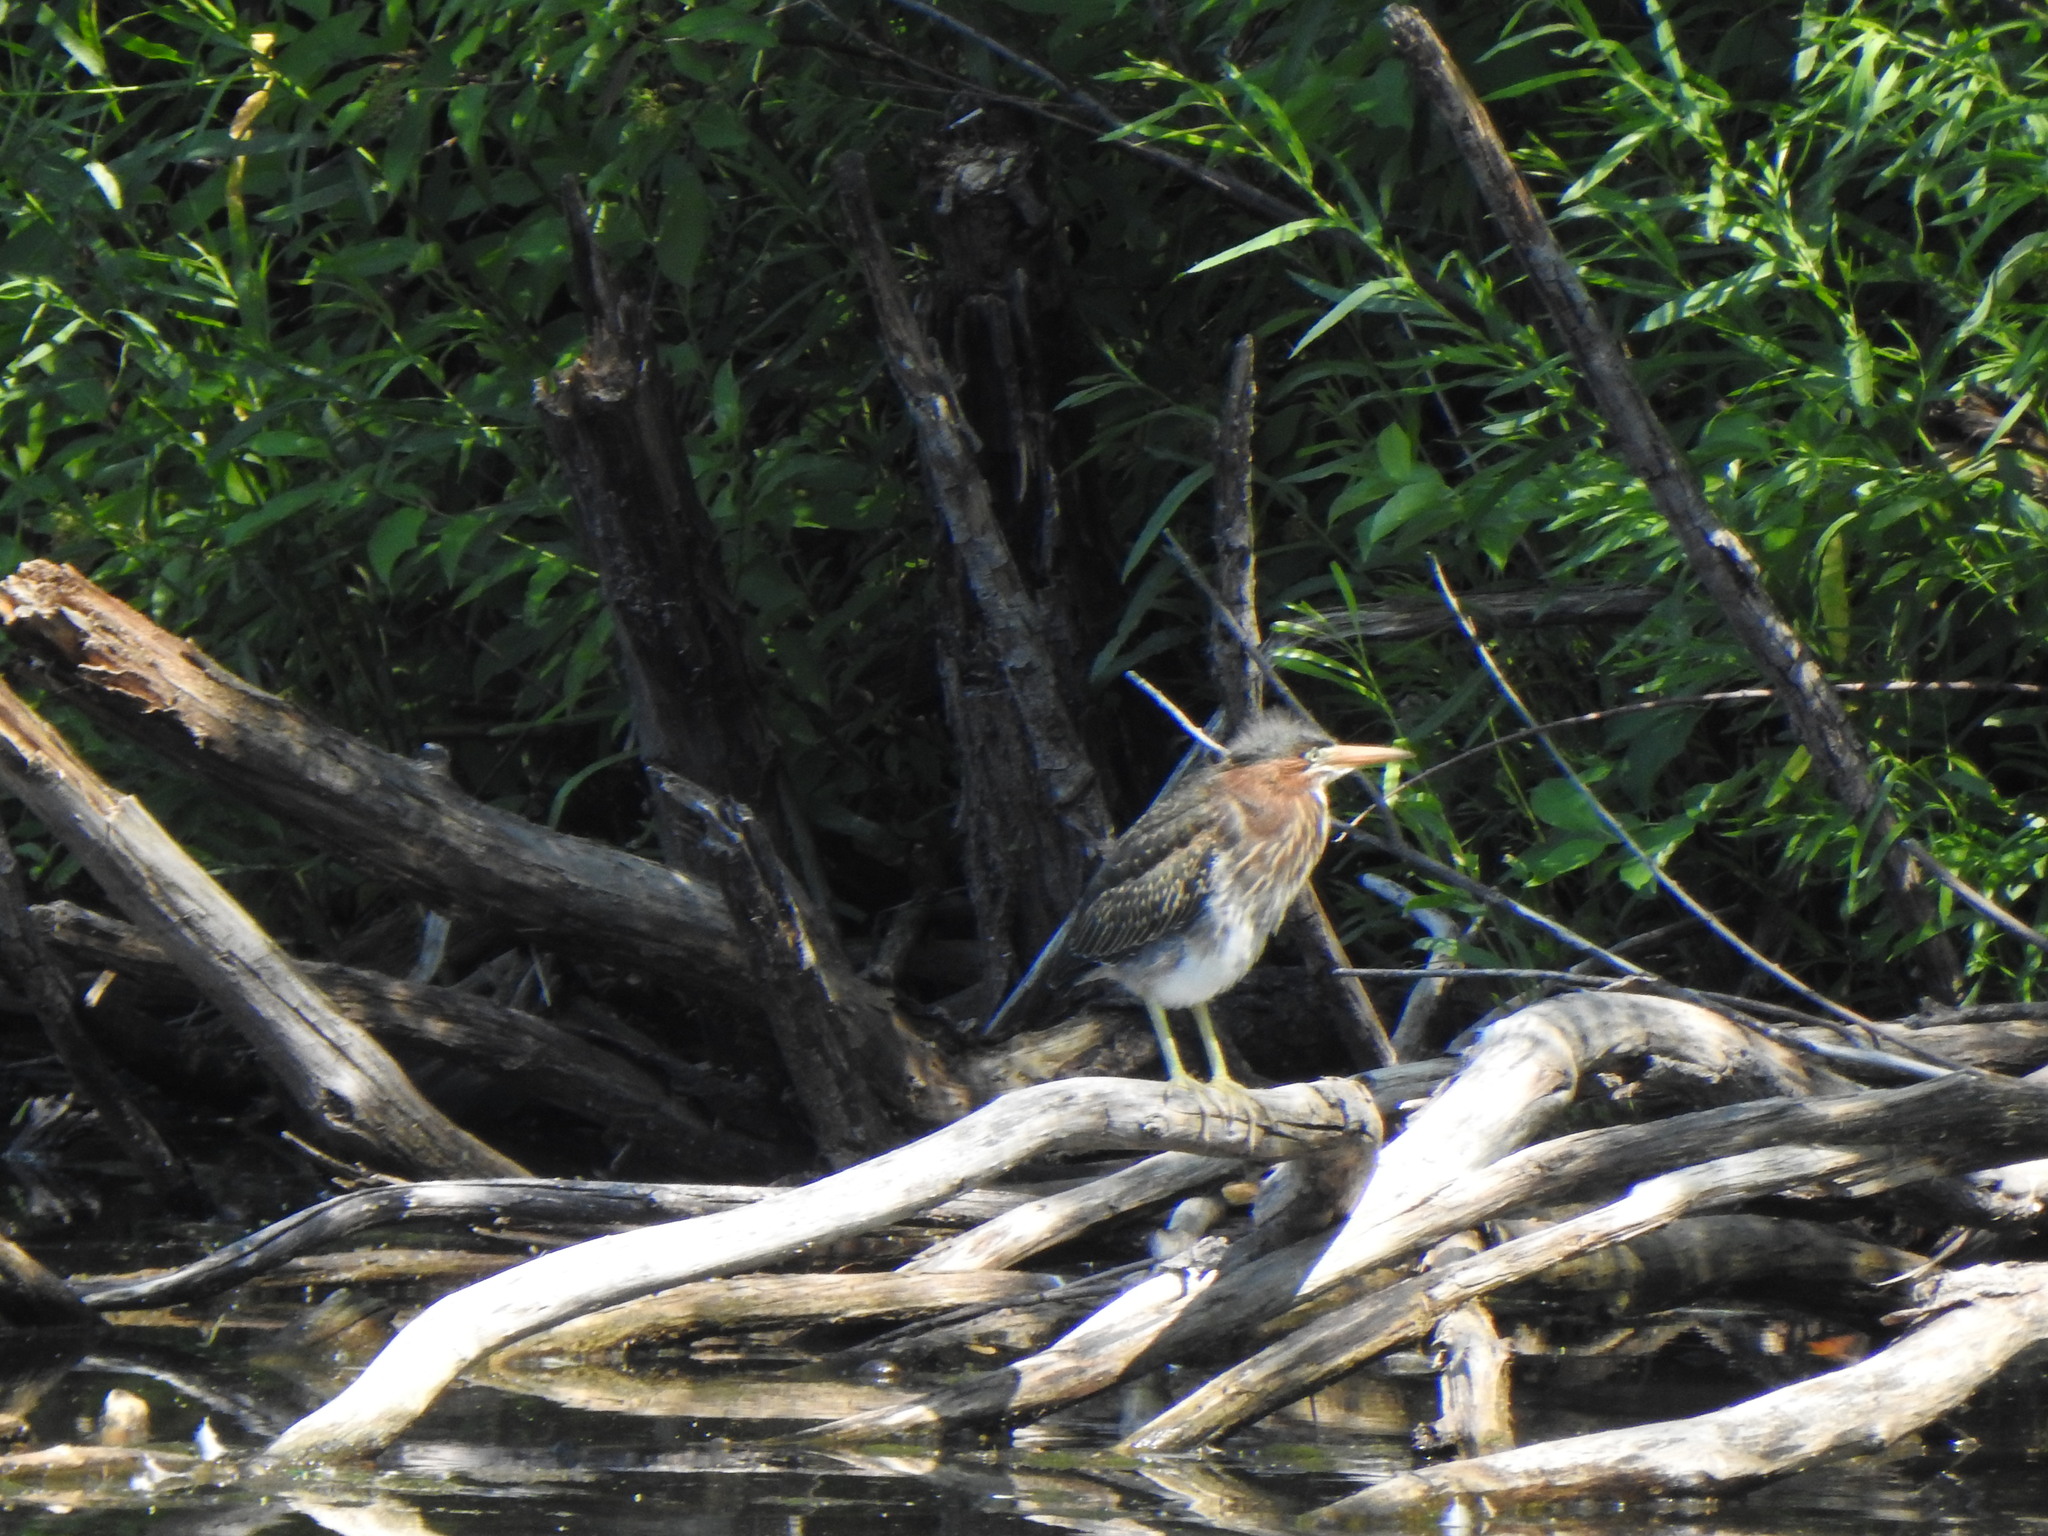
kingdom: Animalia
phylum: Chordata
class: Aves
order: Pelecaniformes
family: Ardeidae
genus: Butorides
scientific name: Butorides virescens
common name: Green heron
